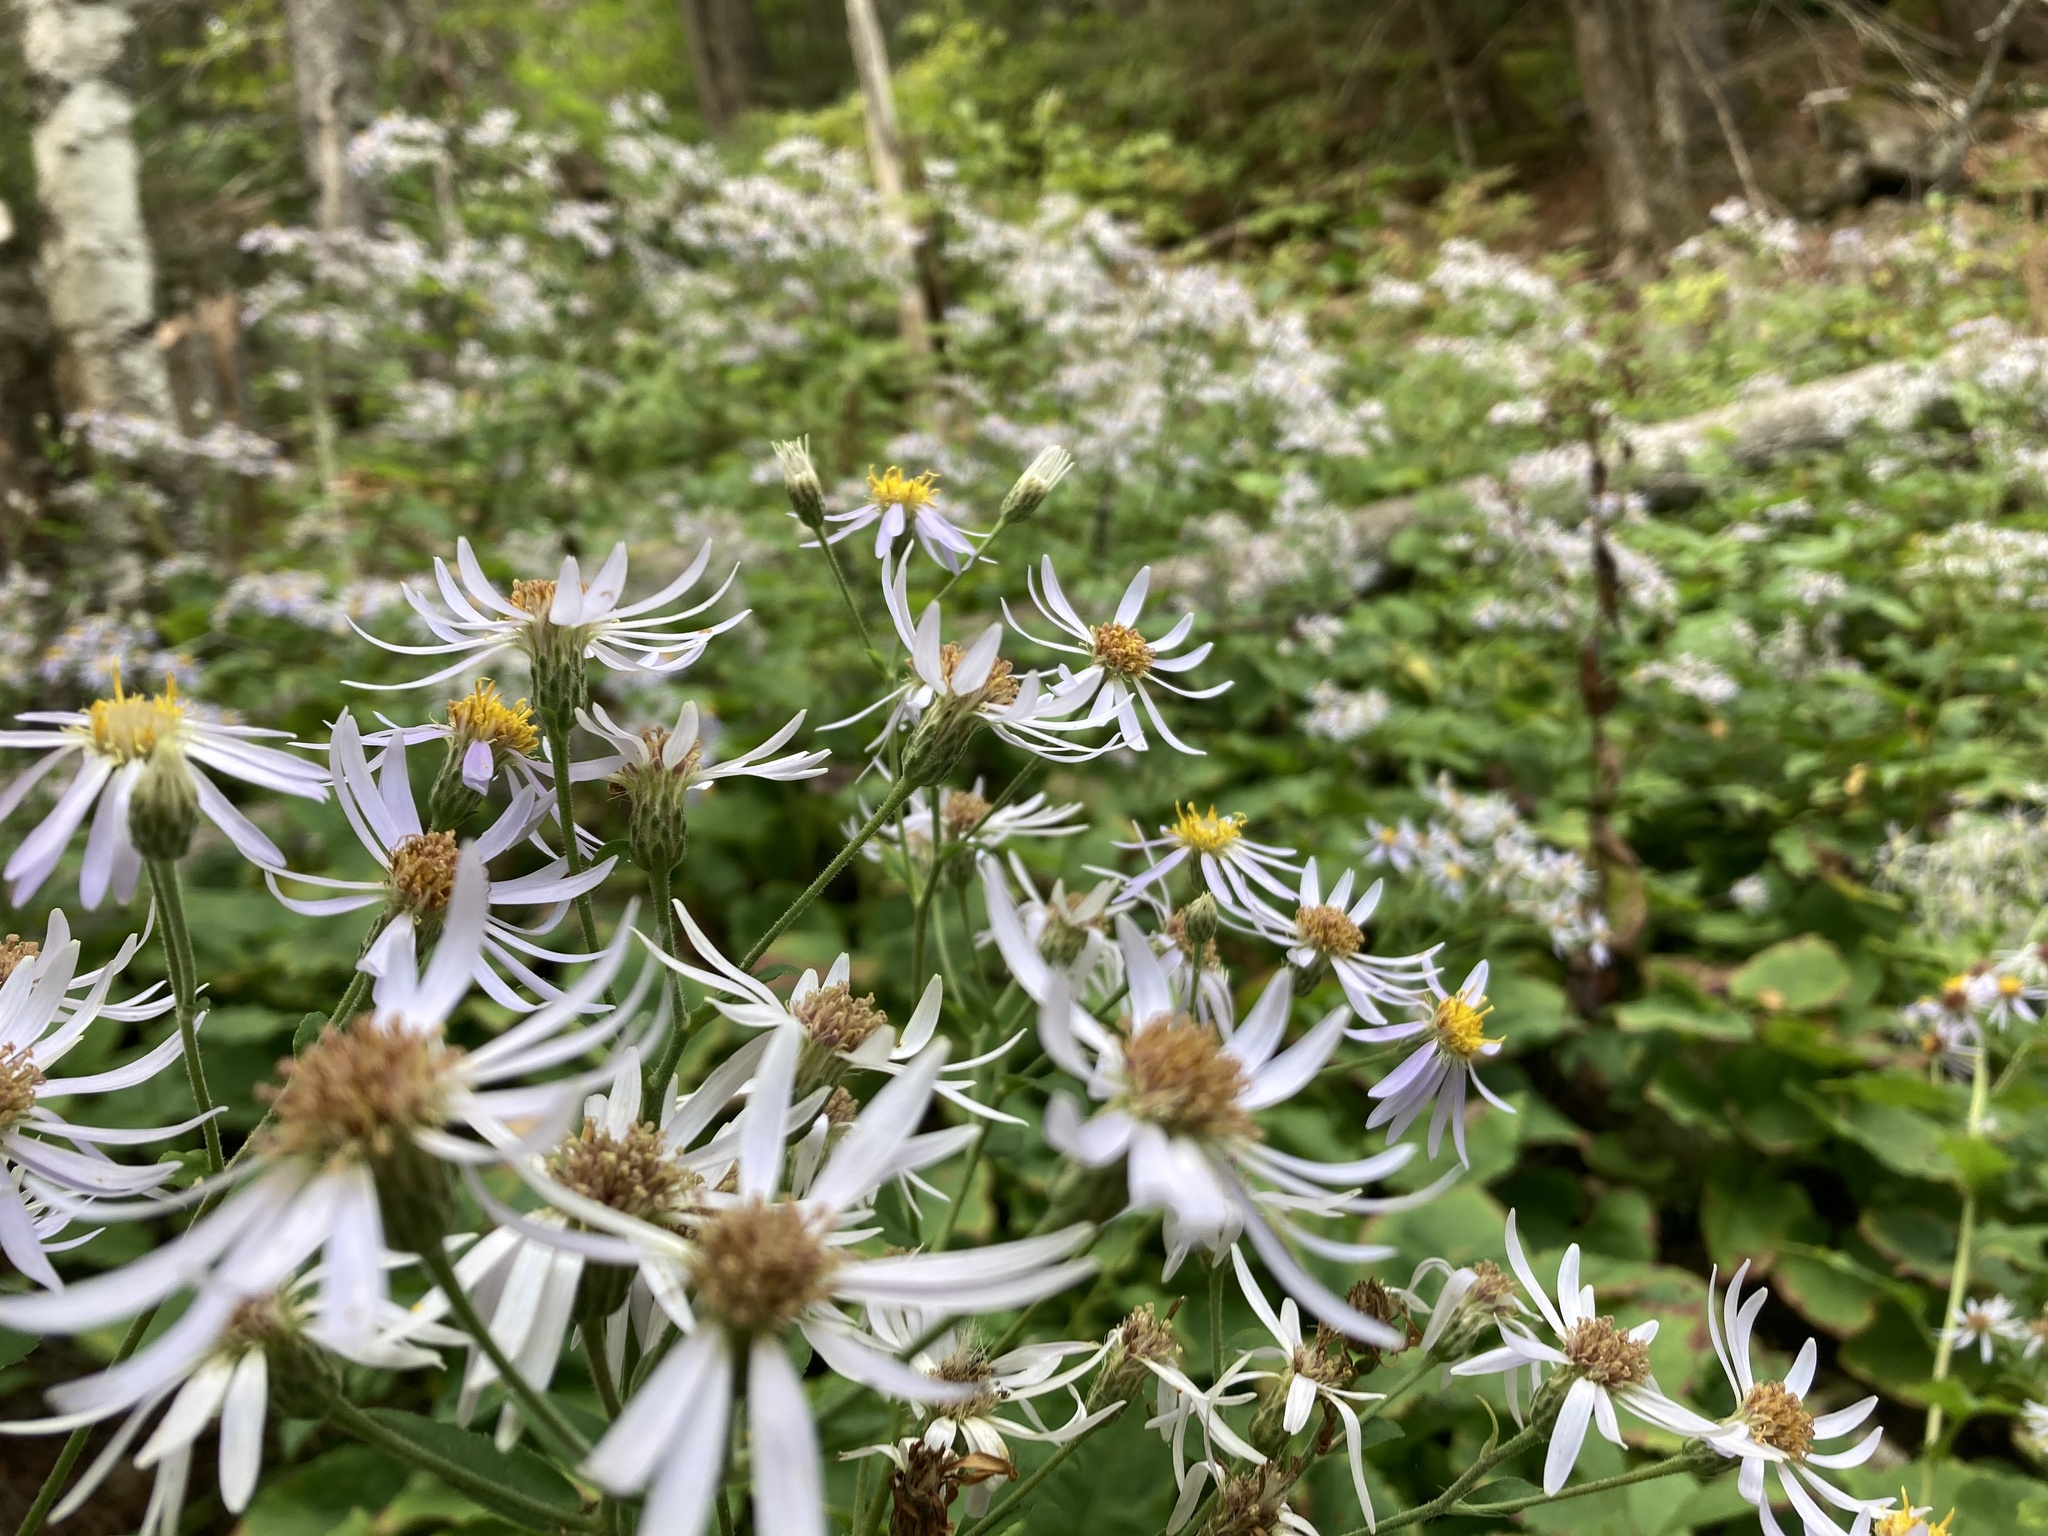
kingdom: Plantae
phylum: Tracheophyta
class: Magnoliopsida
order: Asterales
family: Asteraceae
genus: Eurybia
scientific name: Eurybia macrophylla
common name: Big-leaved aster
